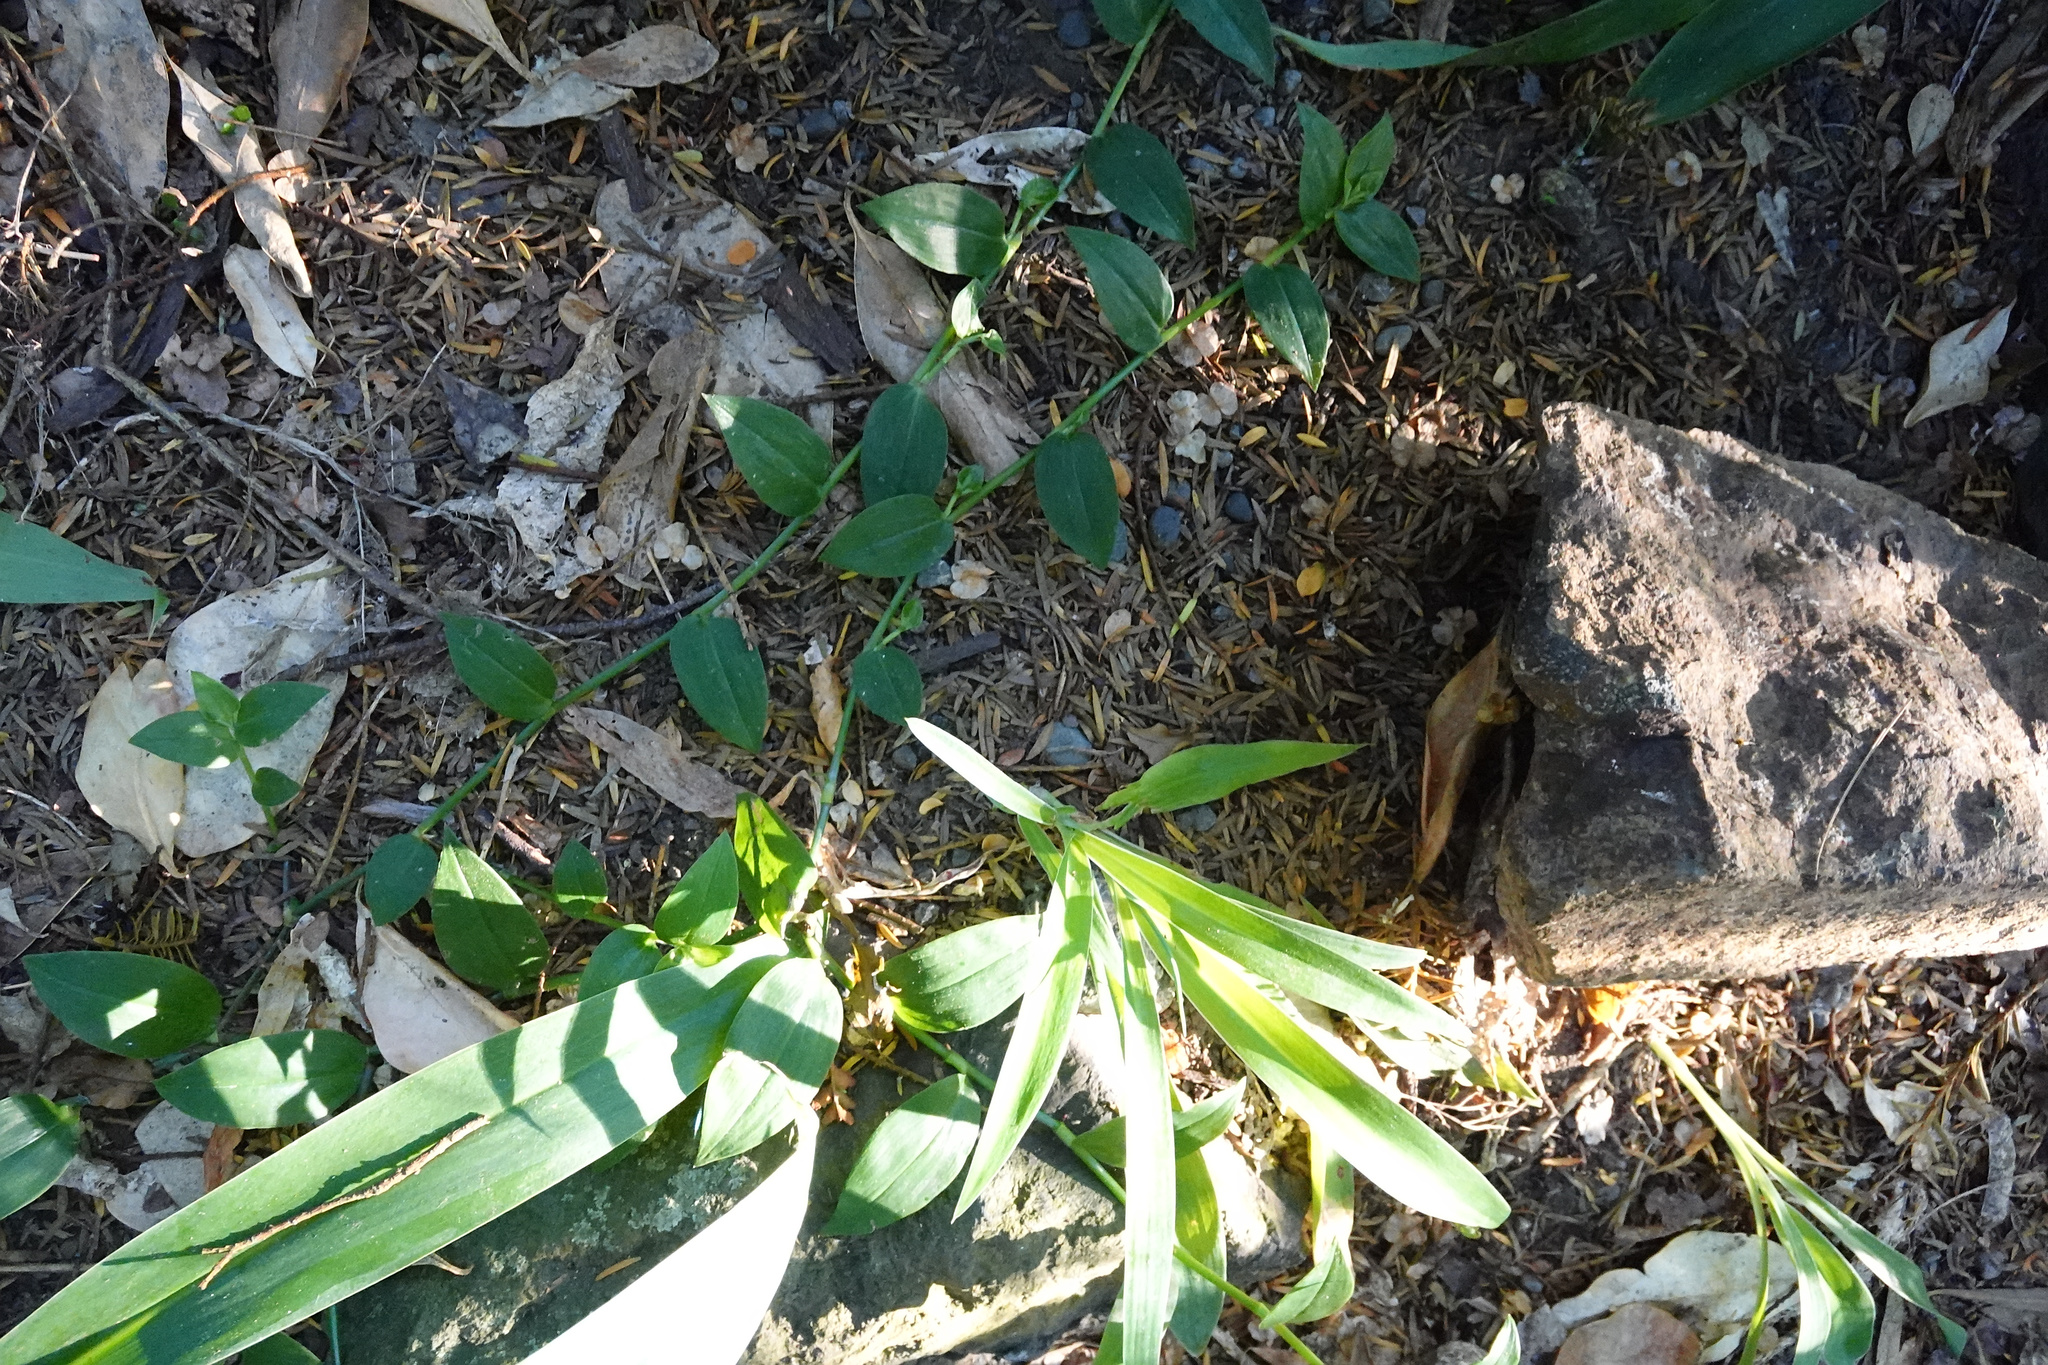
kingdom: Plantae
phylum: Tracheophyta
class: Liliopsida
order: Commelinales
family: Commelinaceae
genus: Tradescantia
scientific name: Tradescantia fluminensis
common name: Wandering-jew
